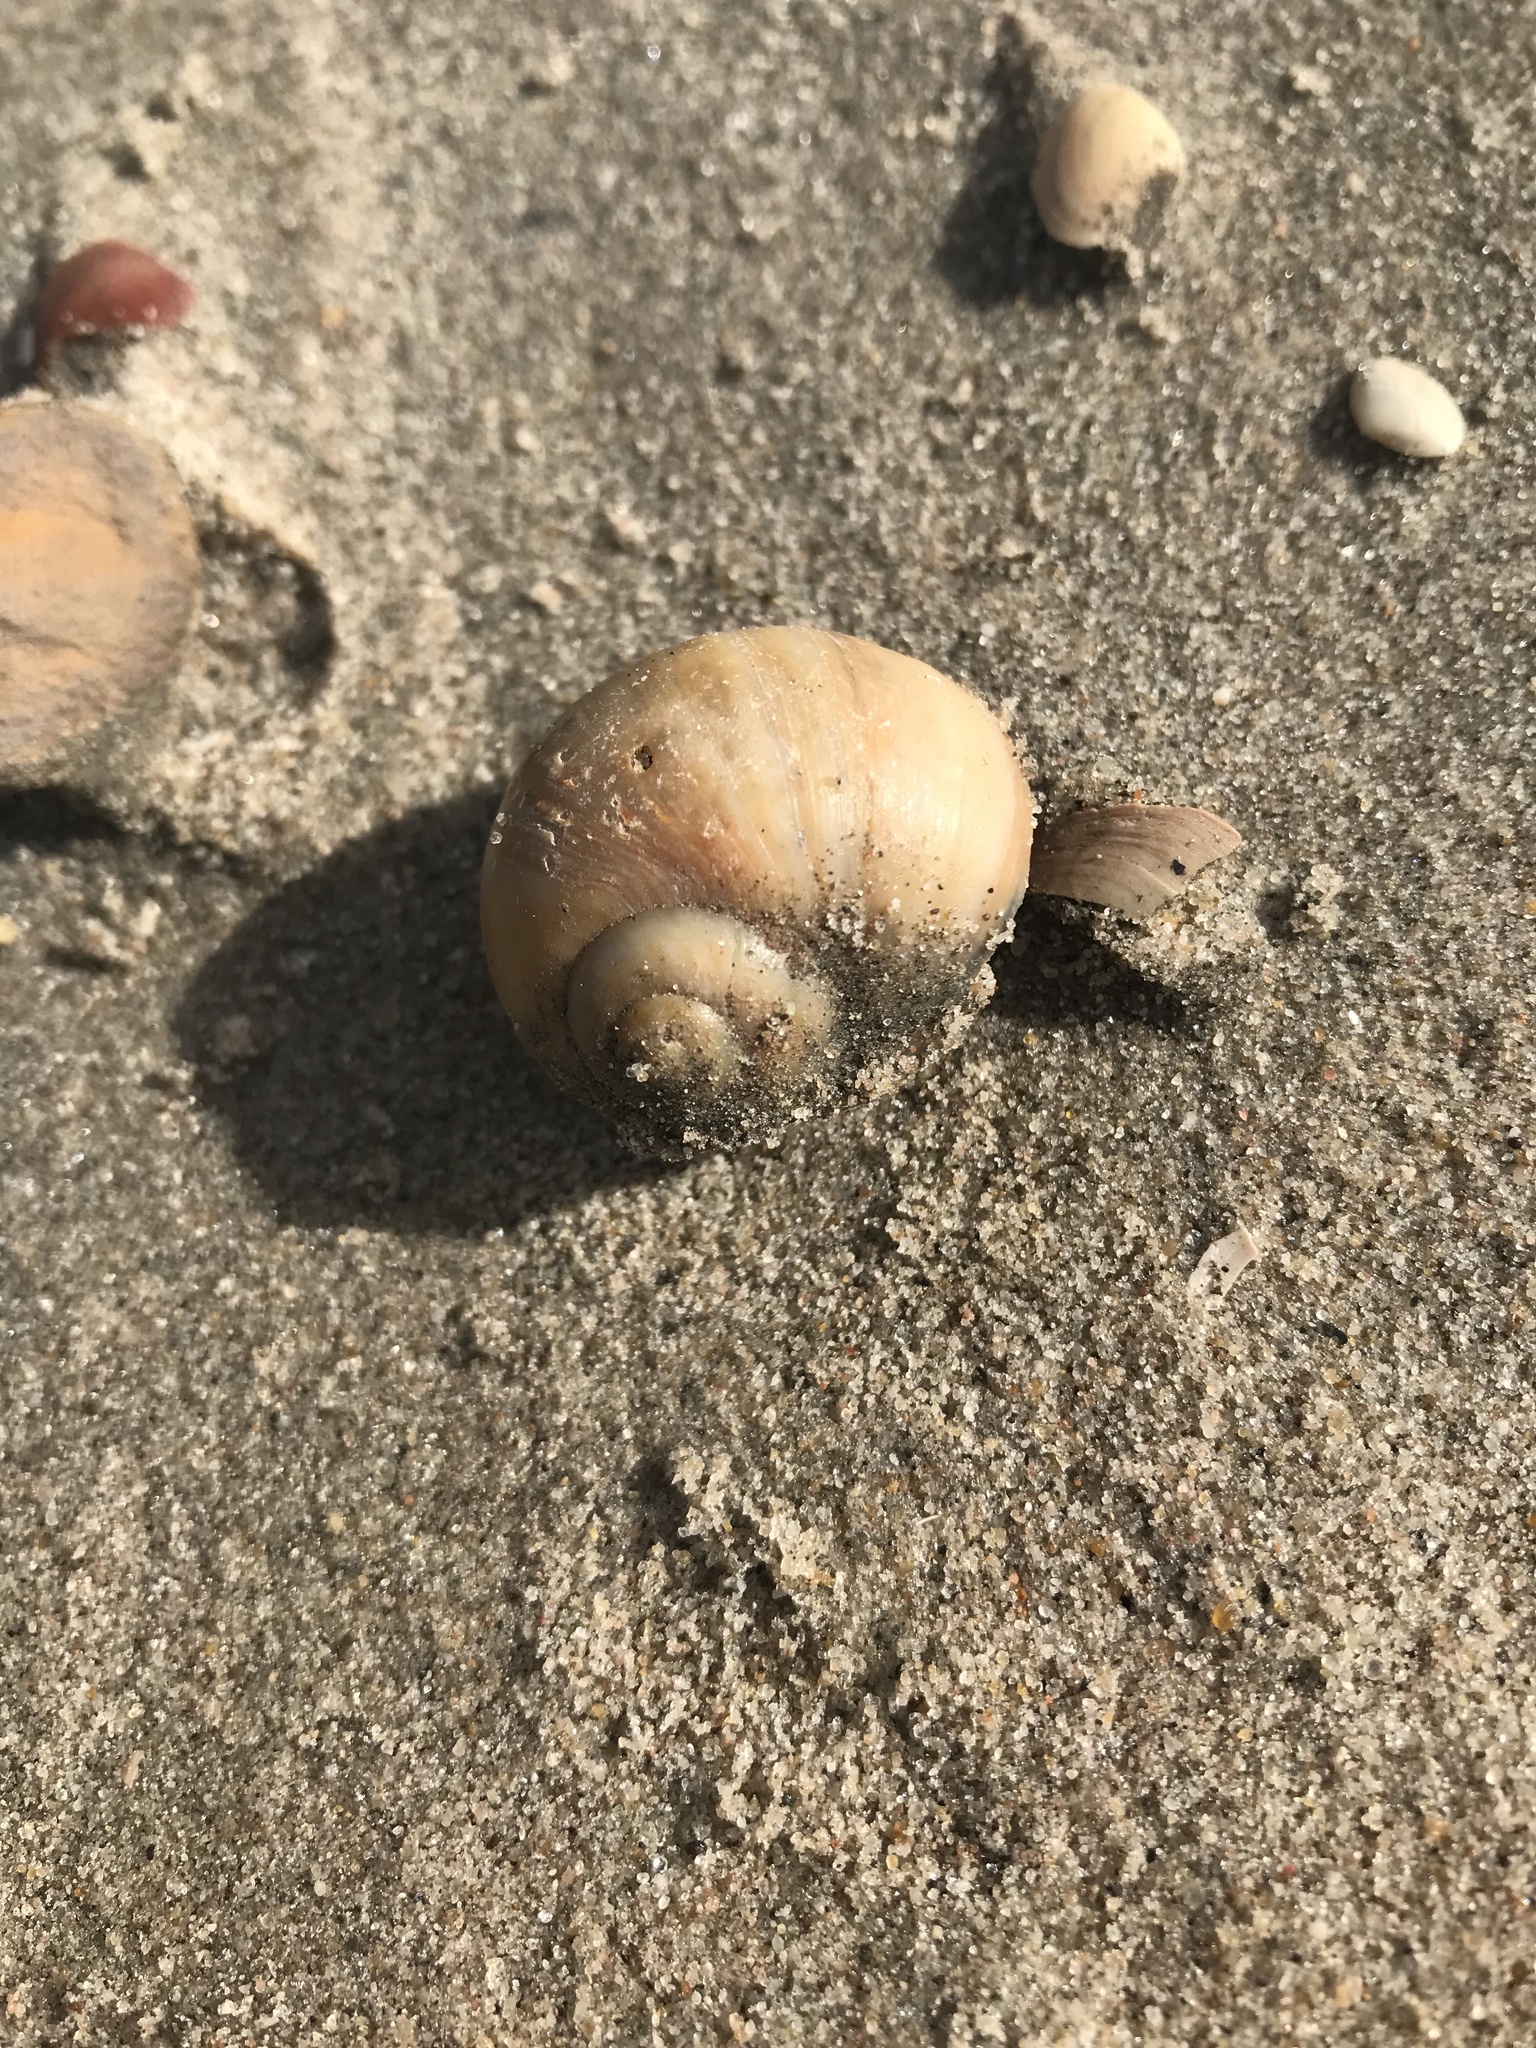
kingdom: Animalia
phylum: Mollusca
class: Gastropoda
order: Littorinimorpha
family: Naticidae
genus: Euspira
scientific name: Euspira catena
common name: Necklace shell
